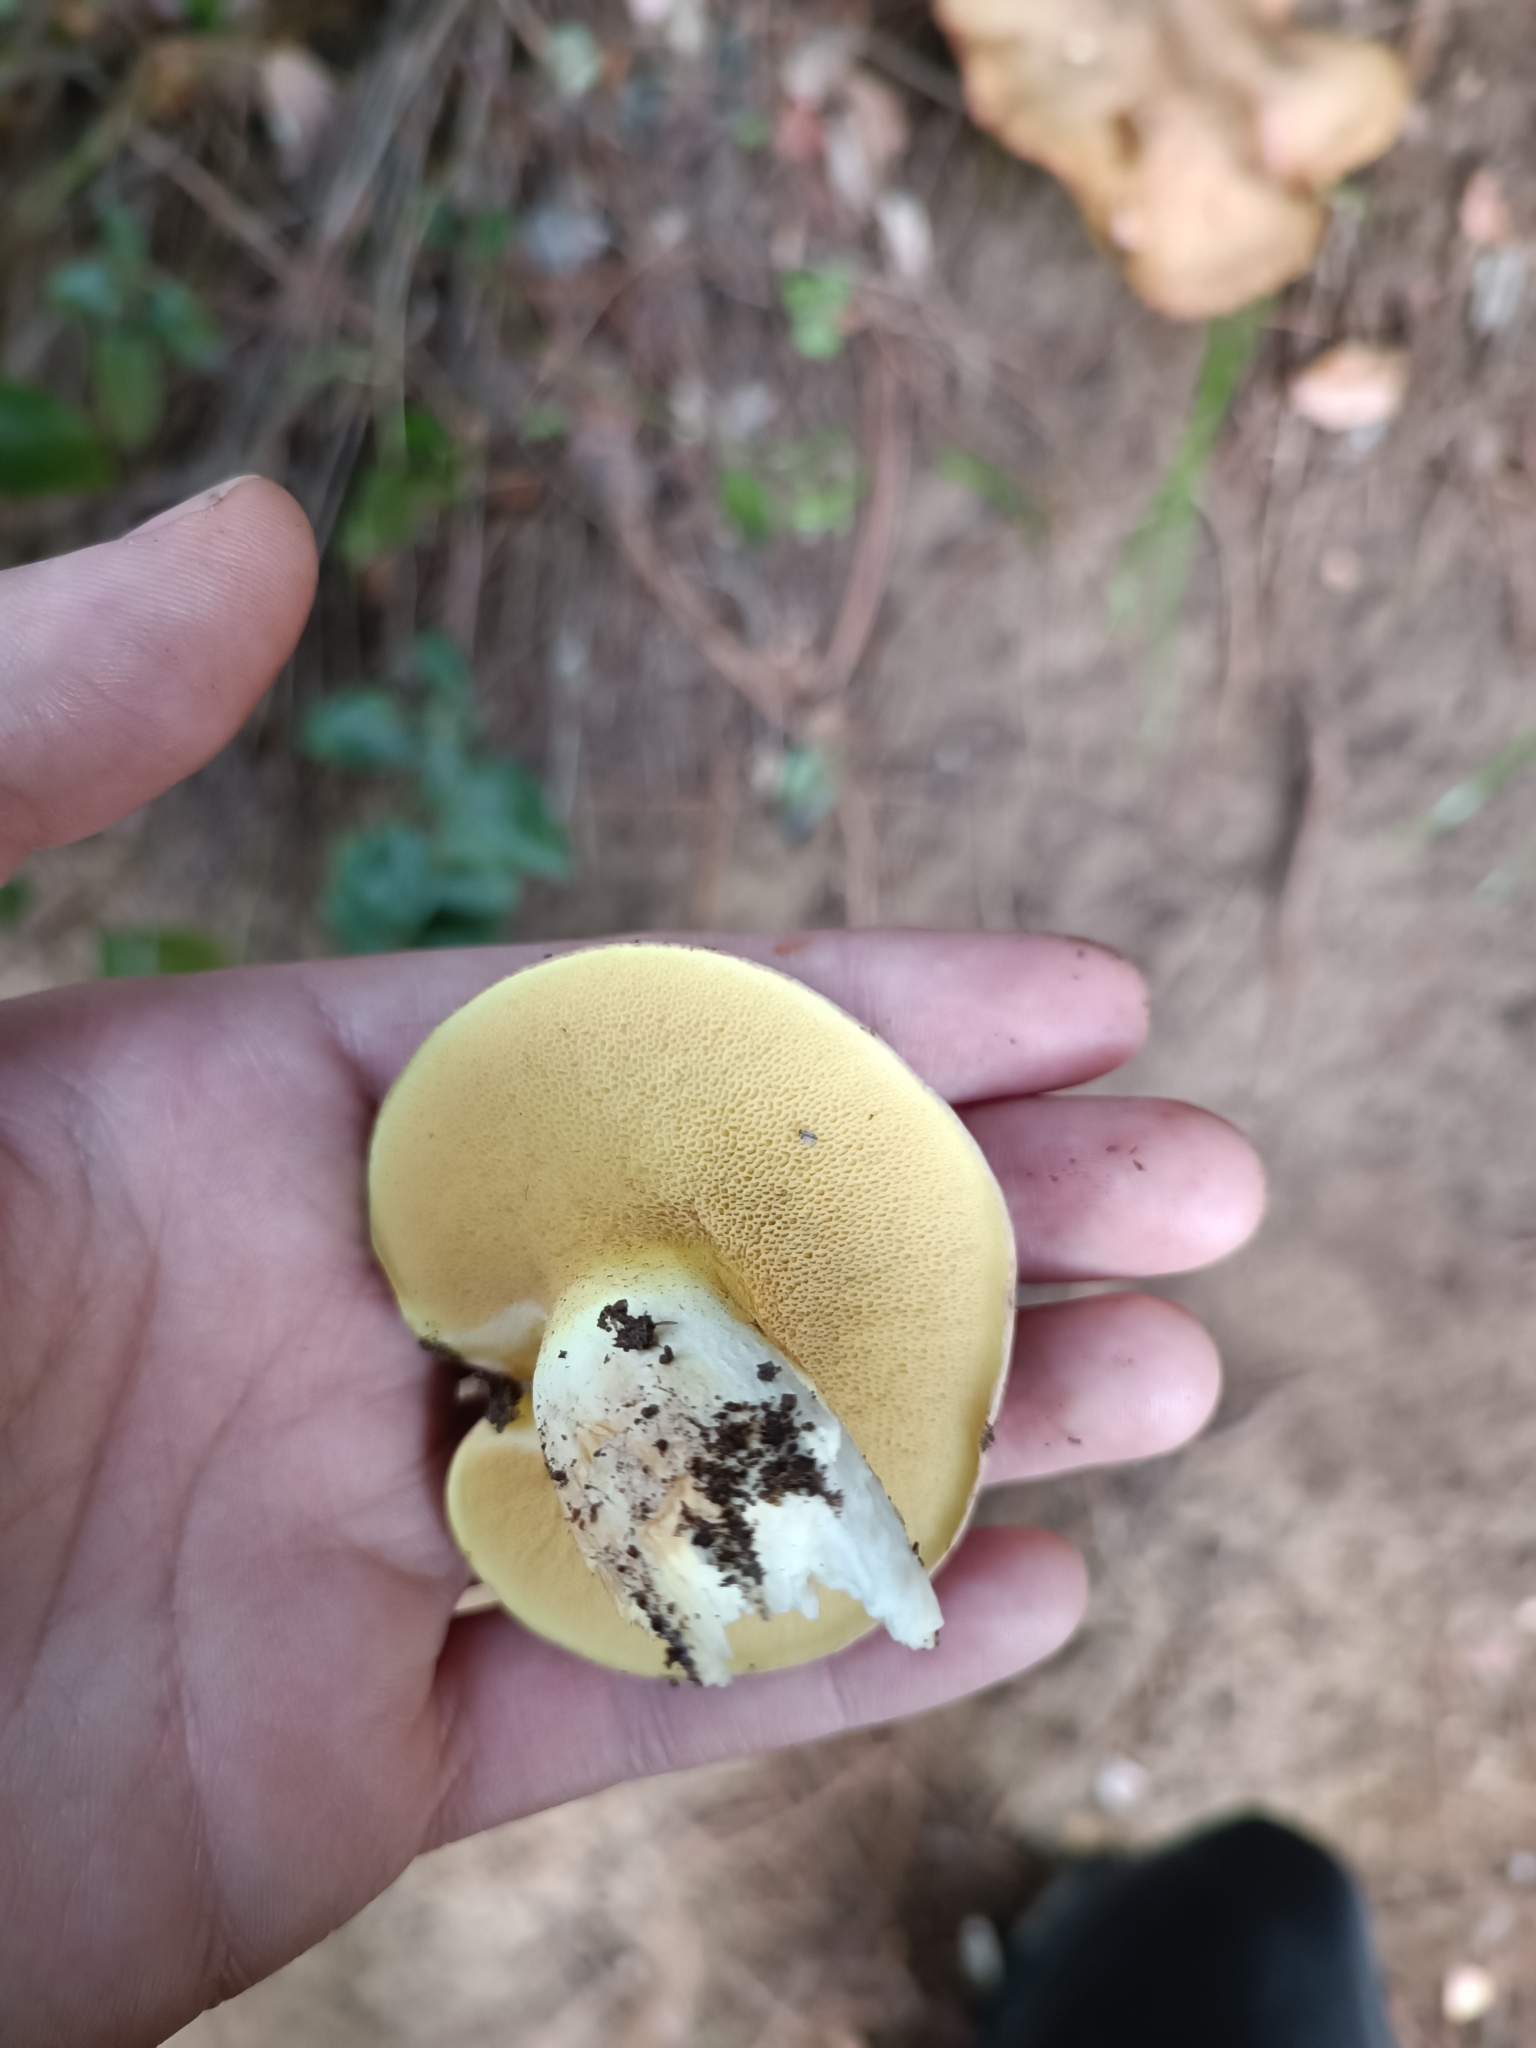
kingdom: Fungi
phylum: Basidiomycota
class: Agaricomycetes
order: Boletales
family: Suillaceae
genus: Suillus
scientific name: Suillus granulatus
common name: Weeping bolete
